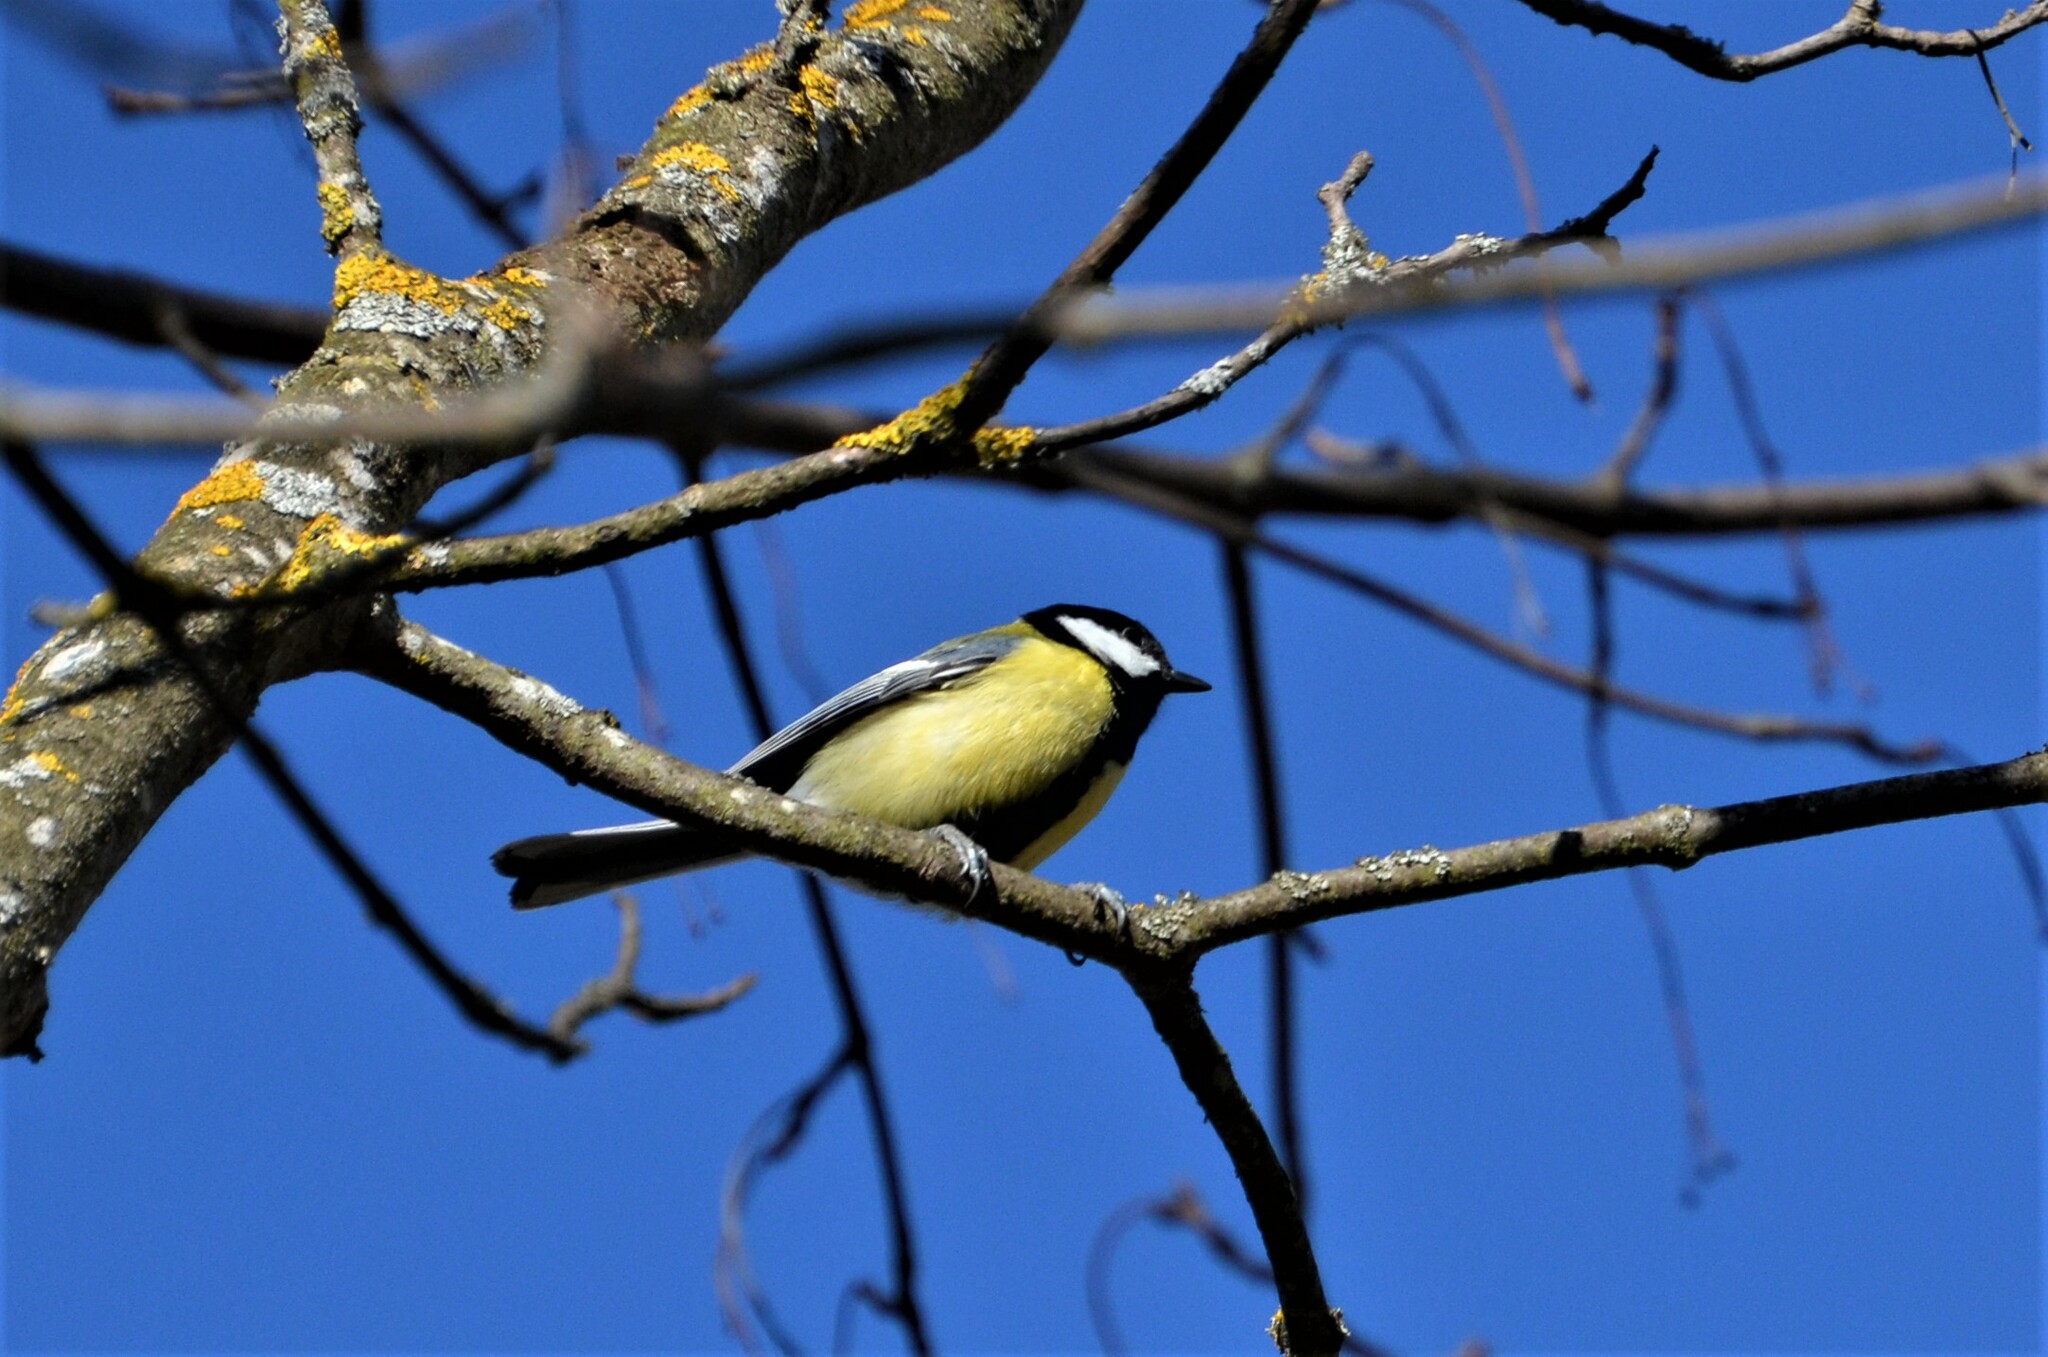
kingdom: Animalia
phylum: Chordata
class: Aves
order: Passeriformes
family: Paridae
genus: Parus
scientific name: Parus major
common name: Great tit
